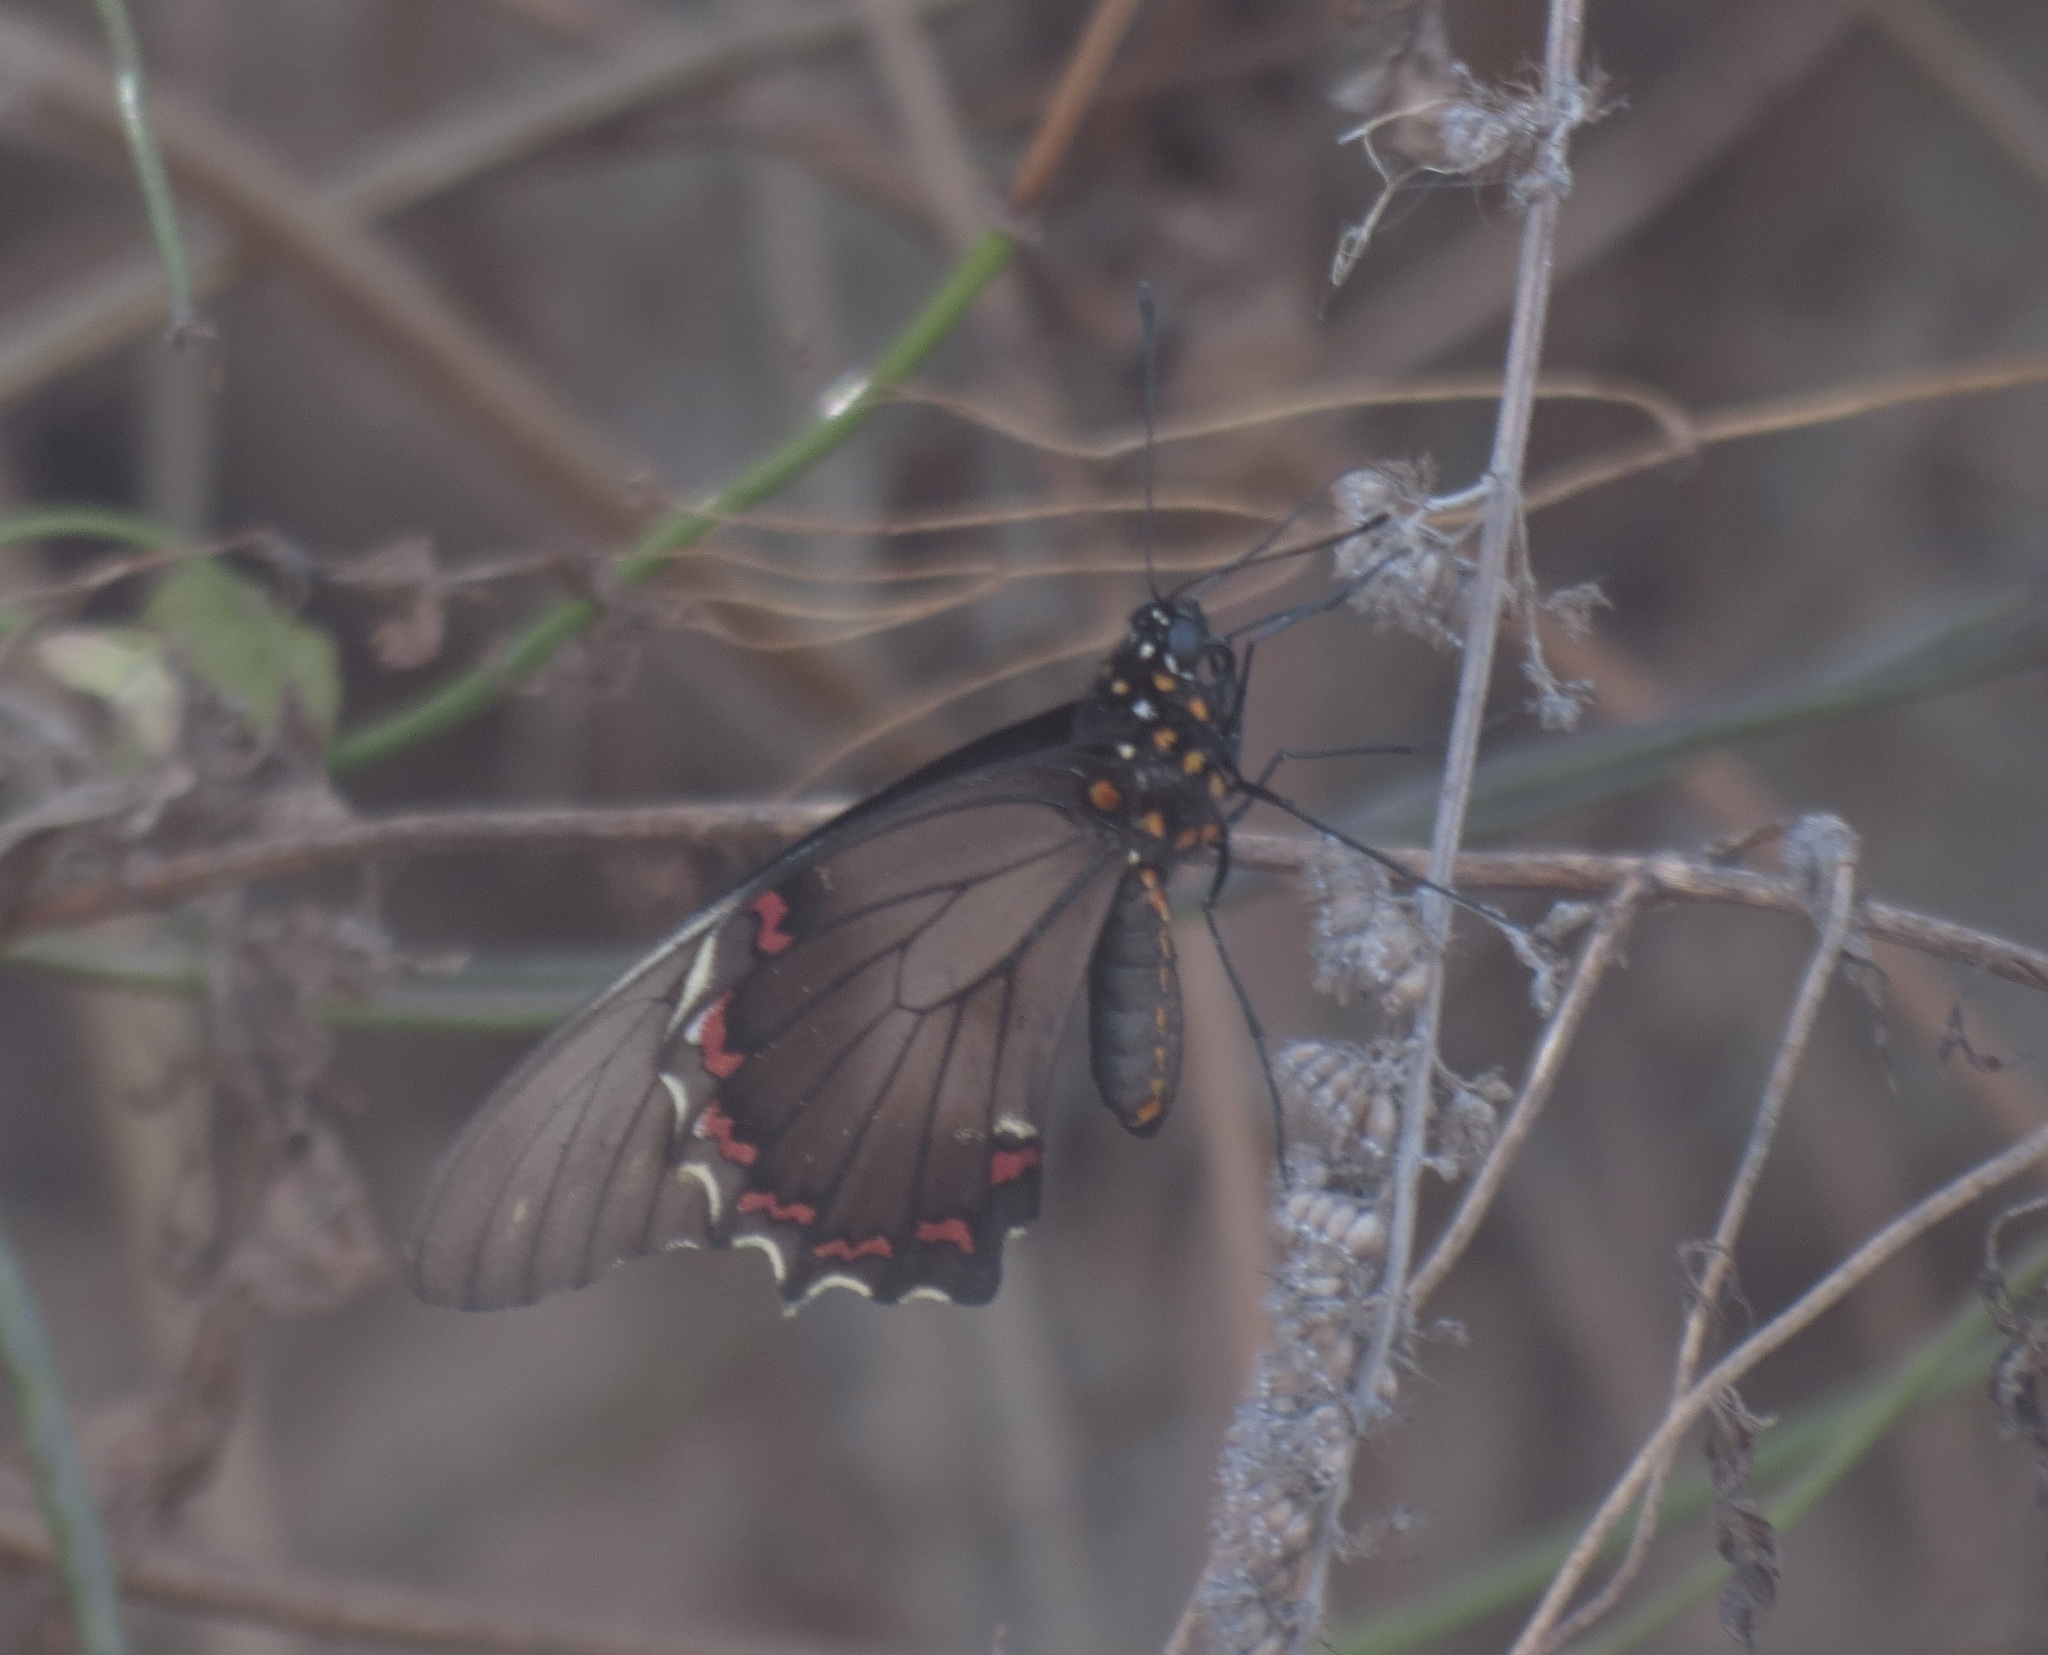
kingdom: Animalia
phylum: Arthropoda
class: Insecta
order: Lepidoptera
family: Papilionidae
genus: Battus
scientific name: Battus polydamas
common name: Polydamas swallowtail
